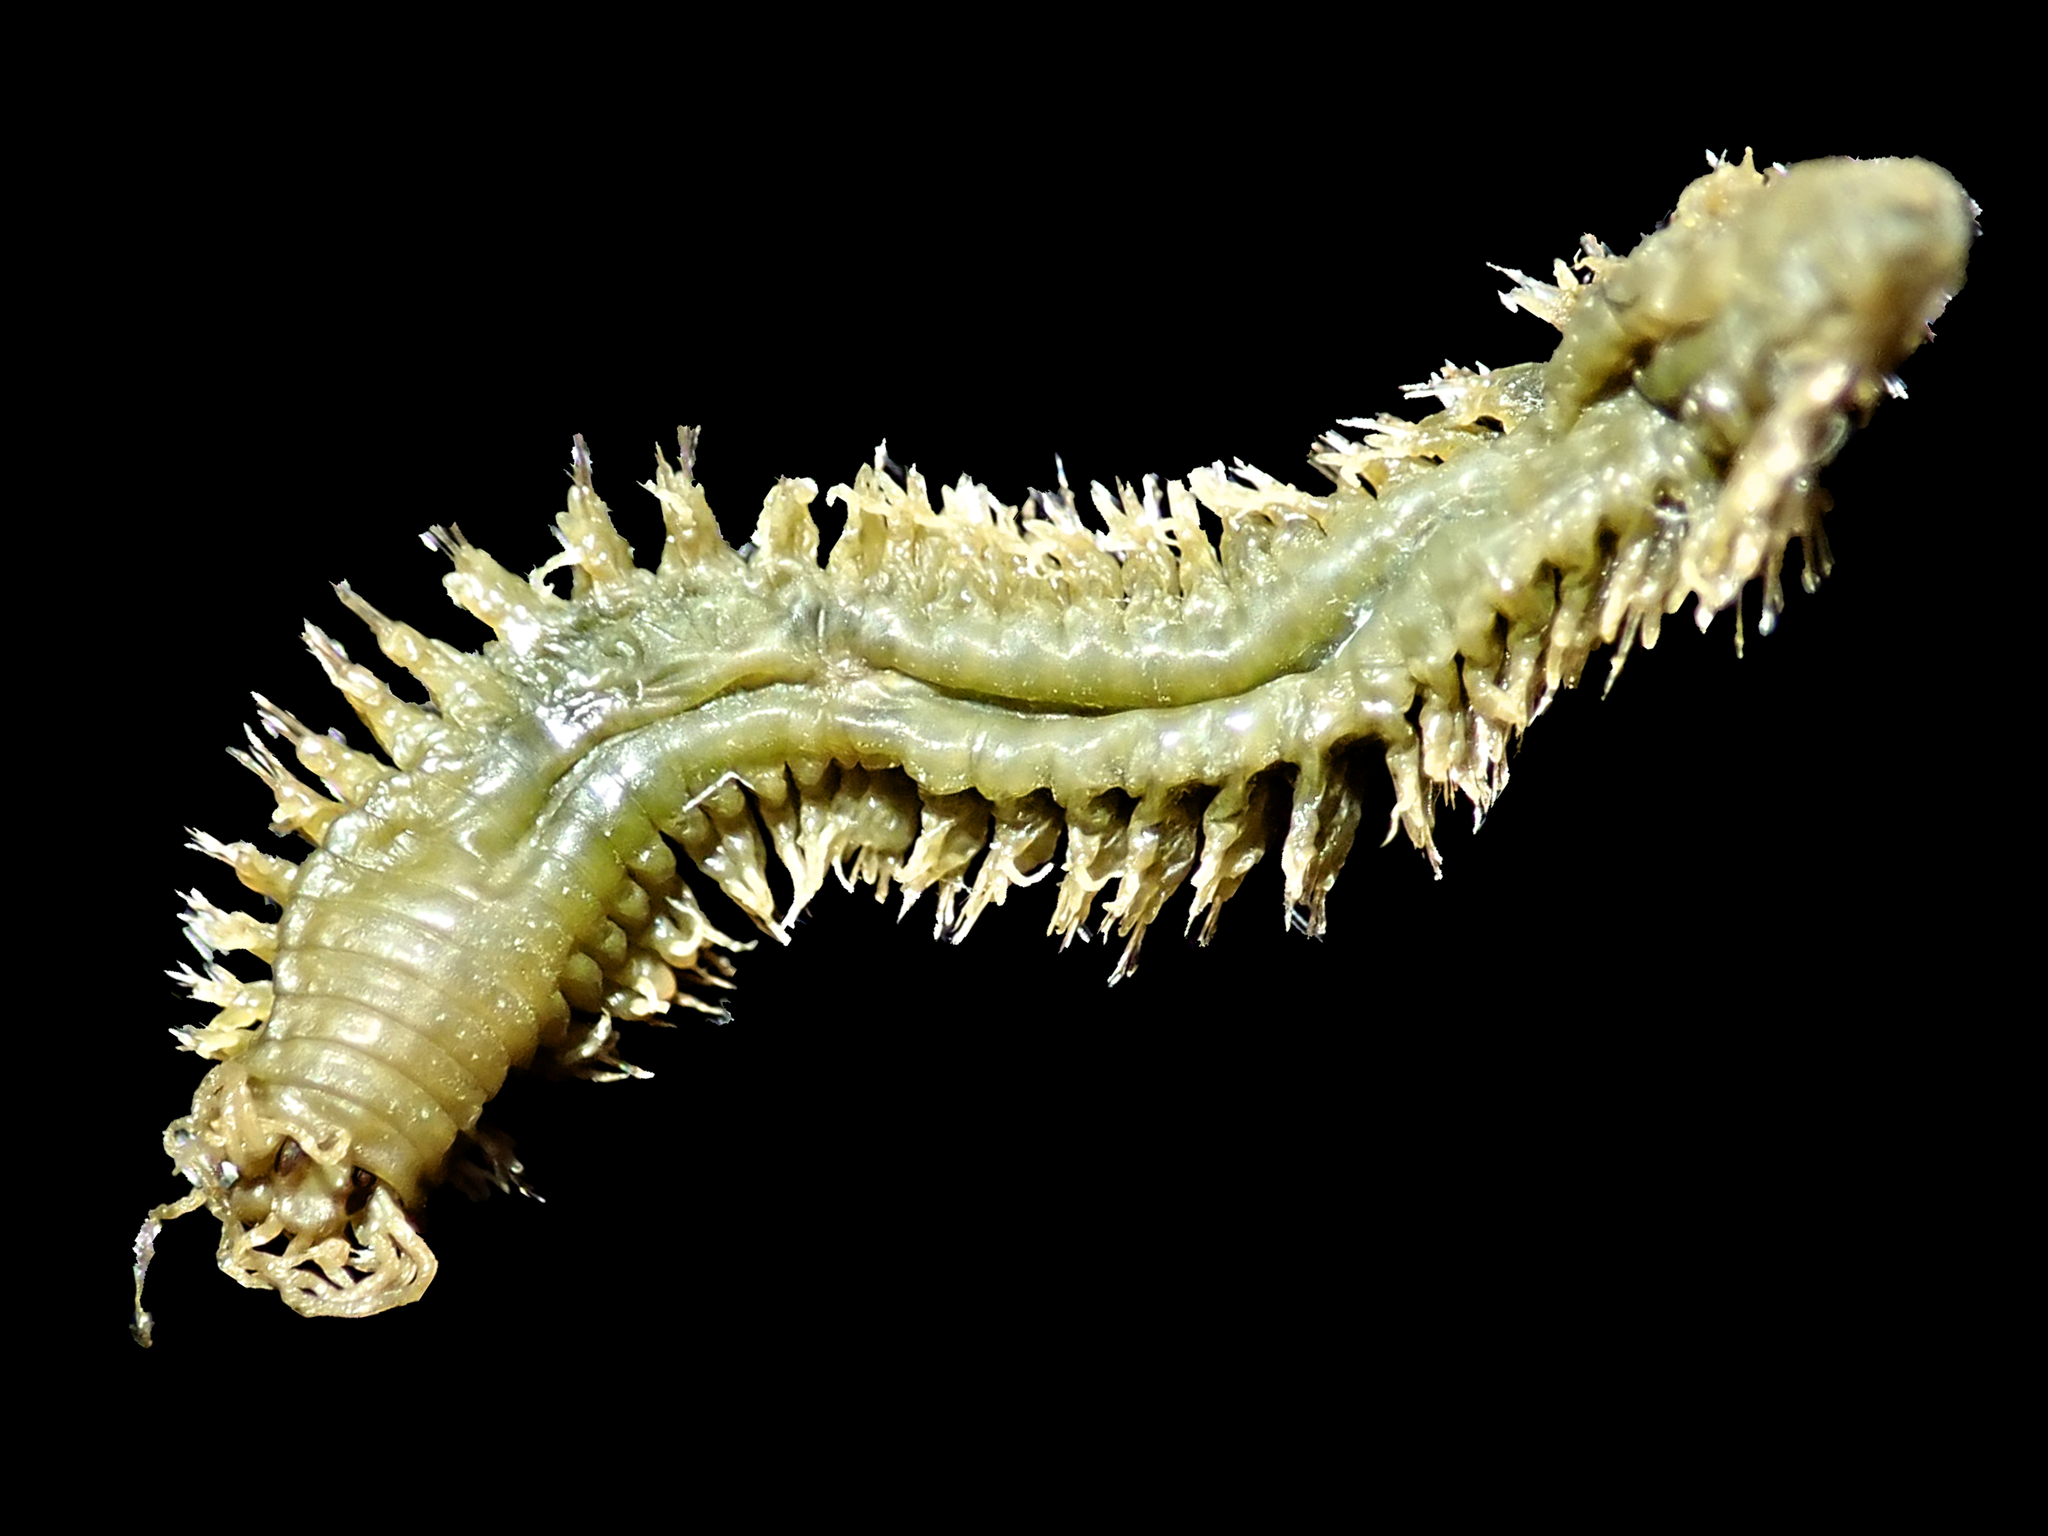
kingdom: Animalia
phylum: Annelida
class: Polychaeta
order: Phyllodocida
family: Nereididae
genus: Platynereis
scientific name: Platynereis australis
